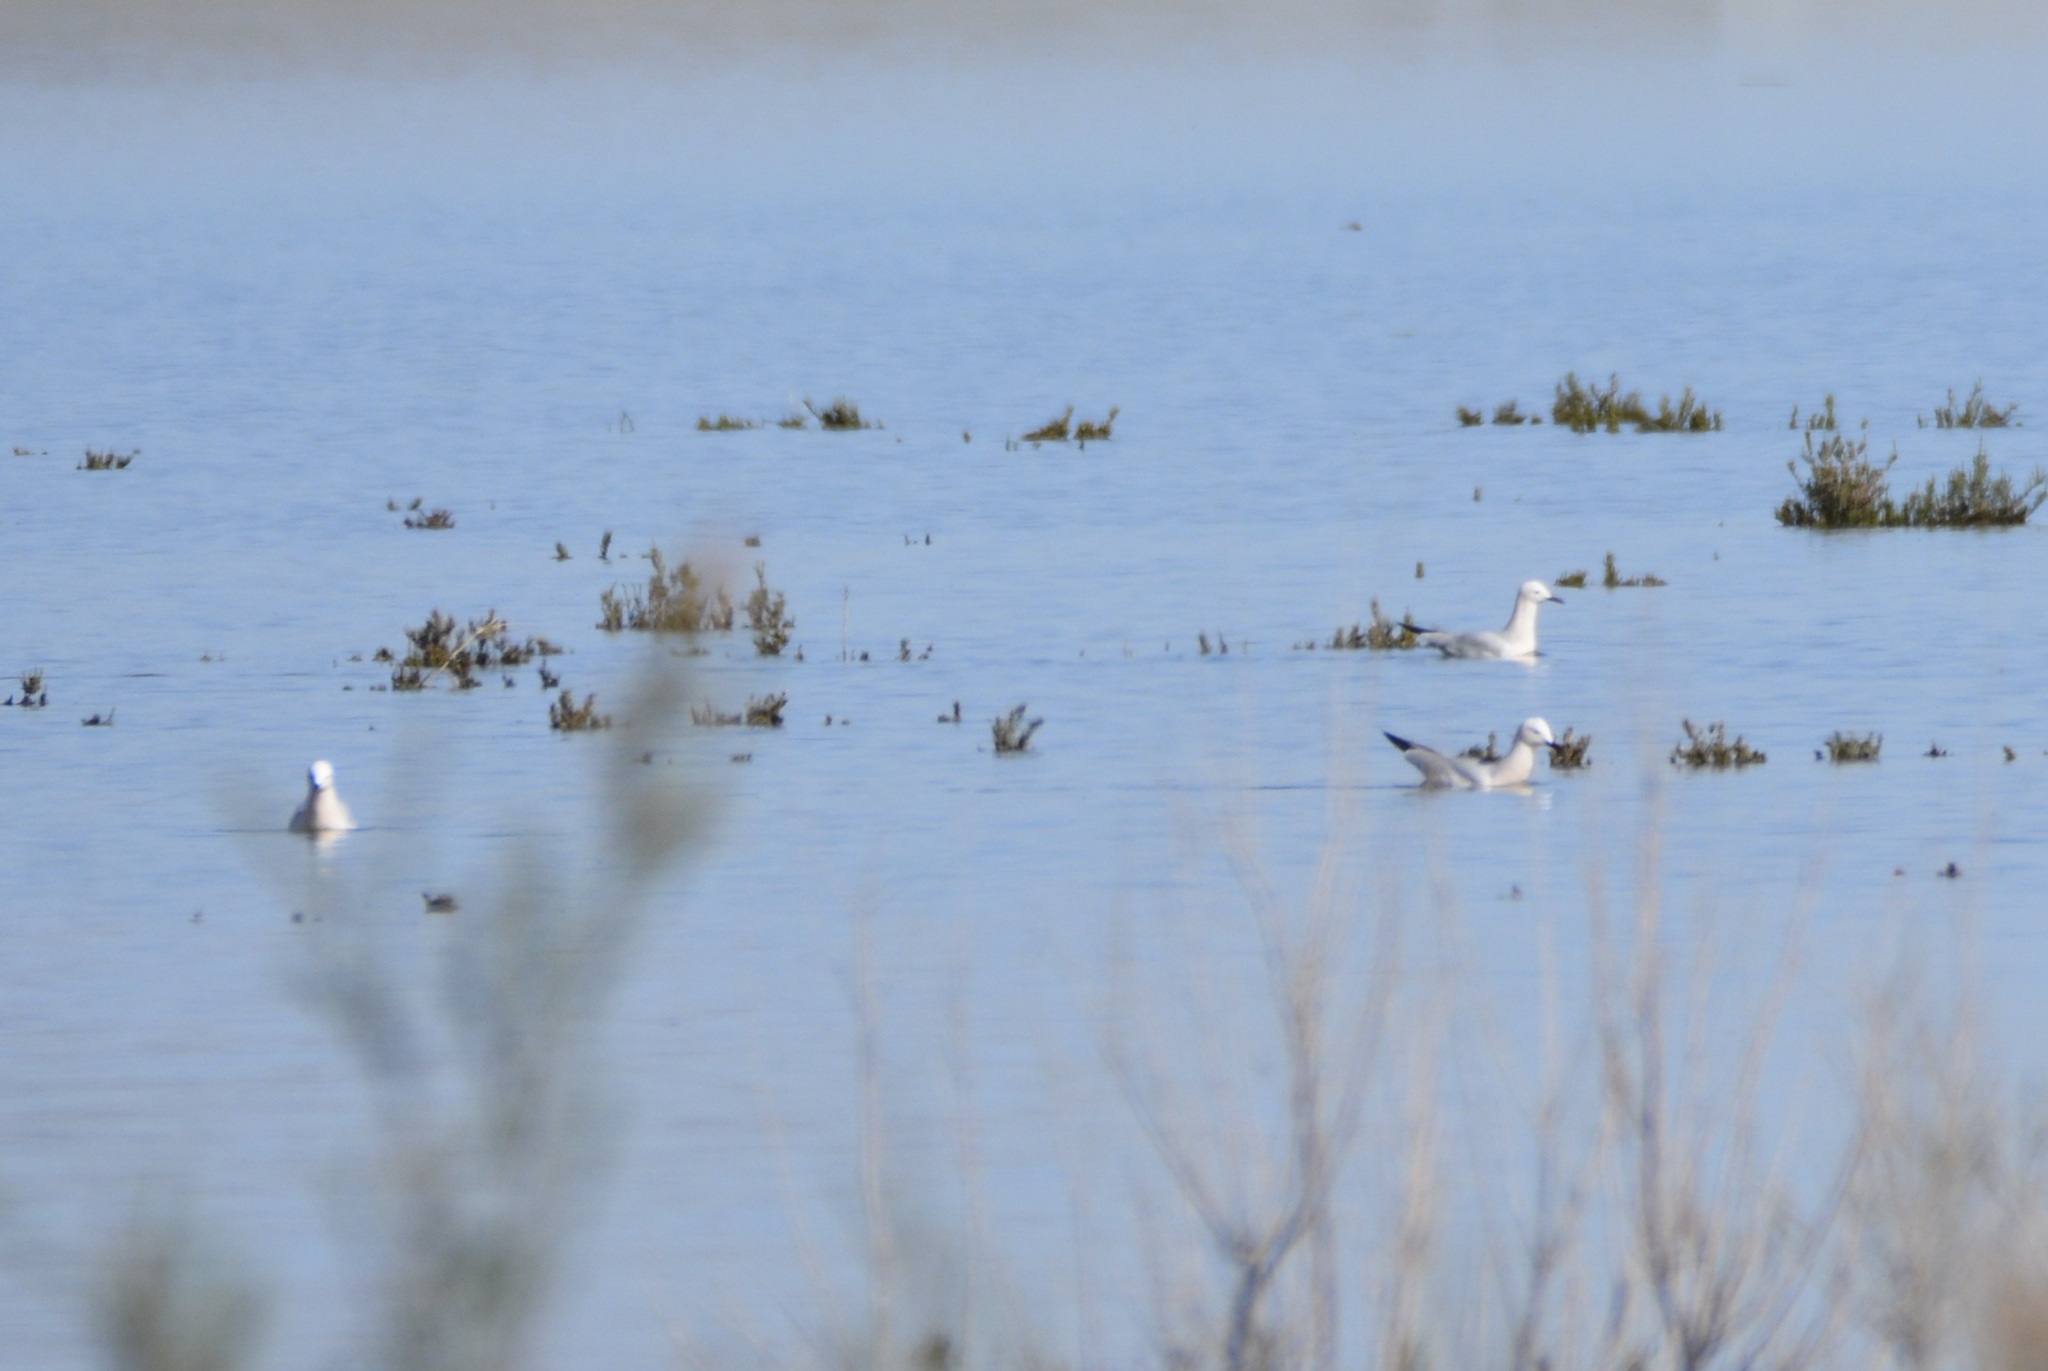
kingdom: Animalia
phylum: Chordata
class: Aves
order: Charadriiformes
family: Laridae
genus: Chroicocephalus
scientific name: Chroicocephalus genei
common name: Slender-billed gull
